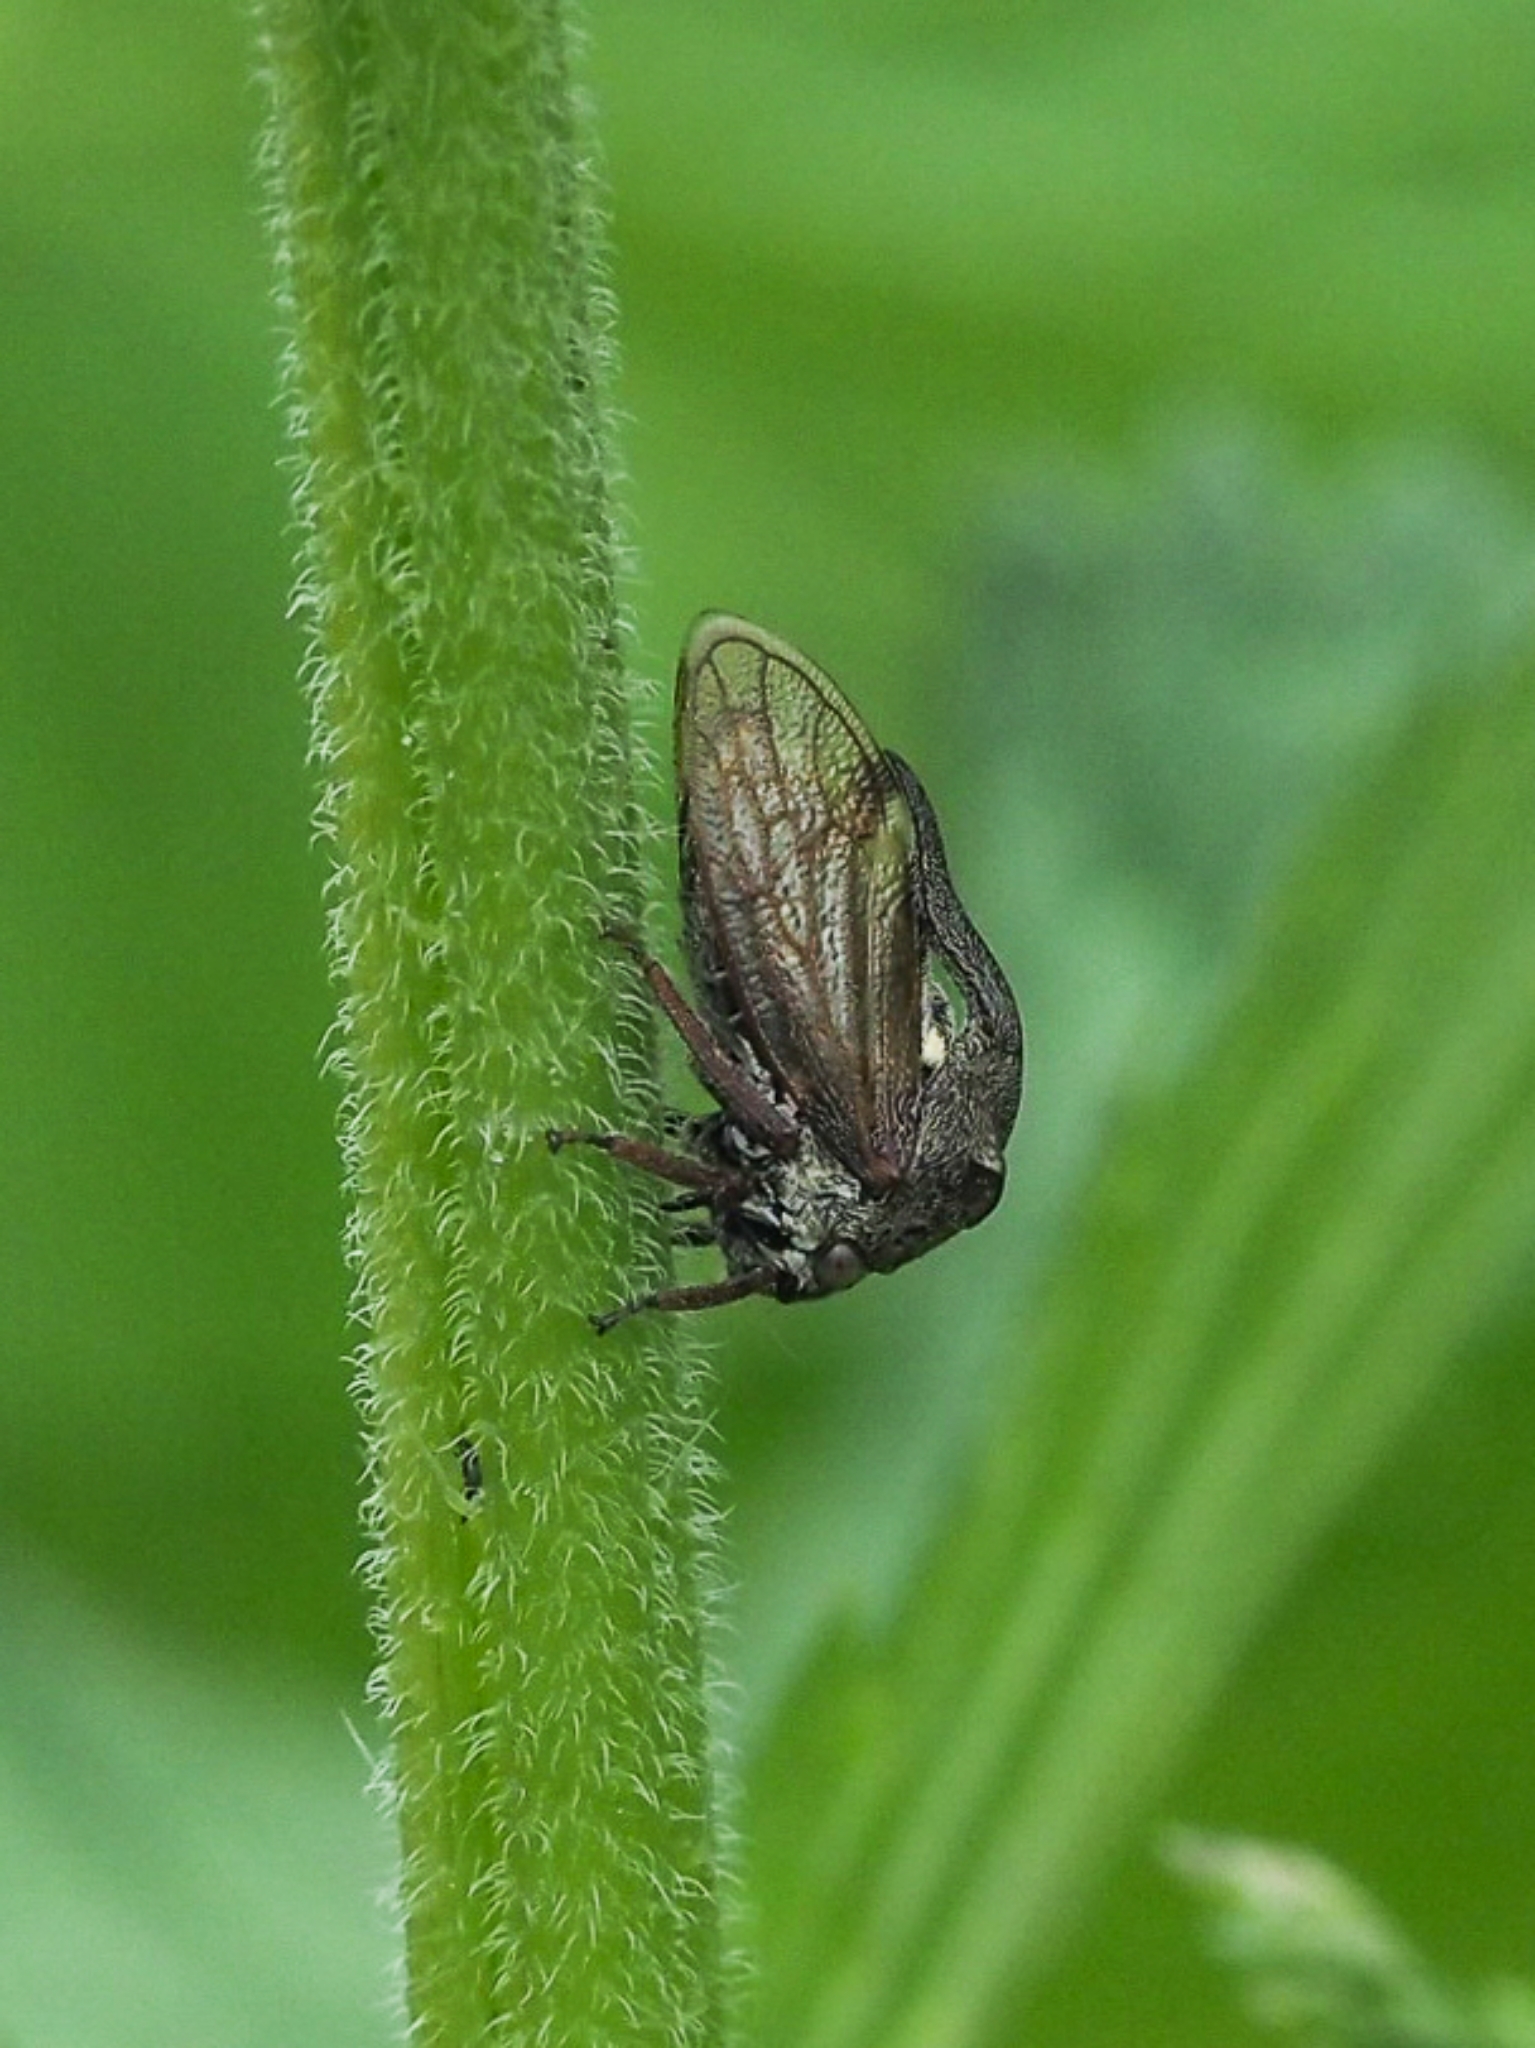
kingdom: Animalia
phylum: Arthropoda
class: Insecta
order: Hemiptera
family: Membracidae
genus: Centrotus
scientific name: Centrotus cornuta
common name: Treehopper
